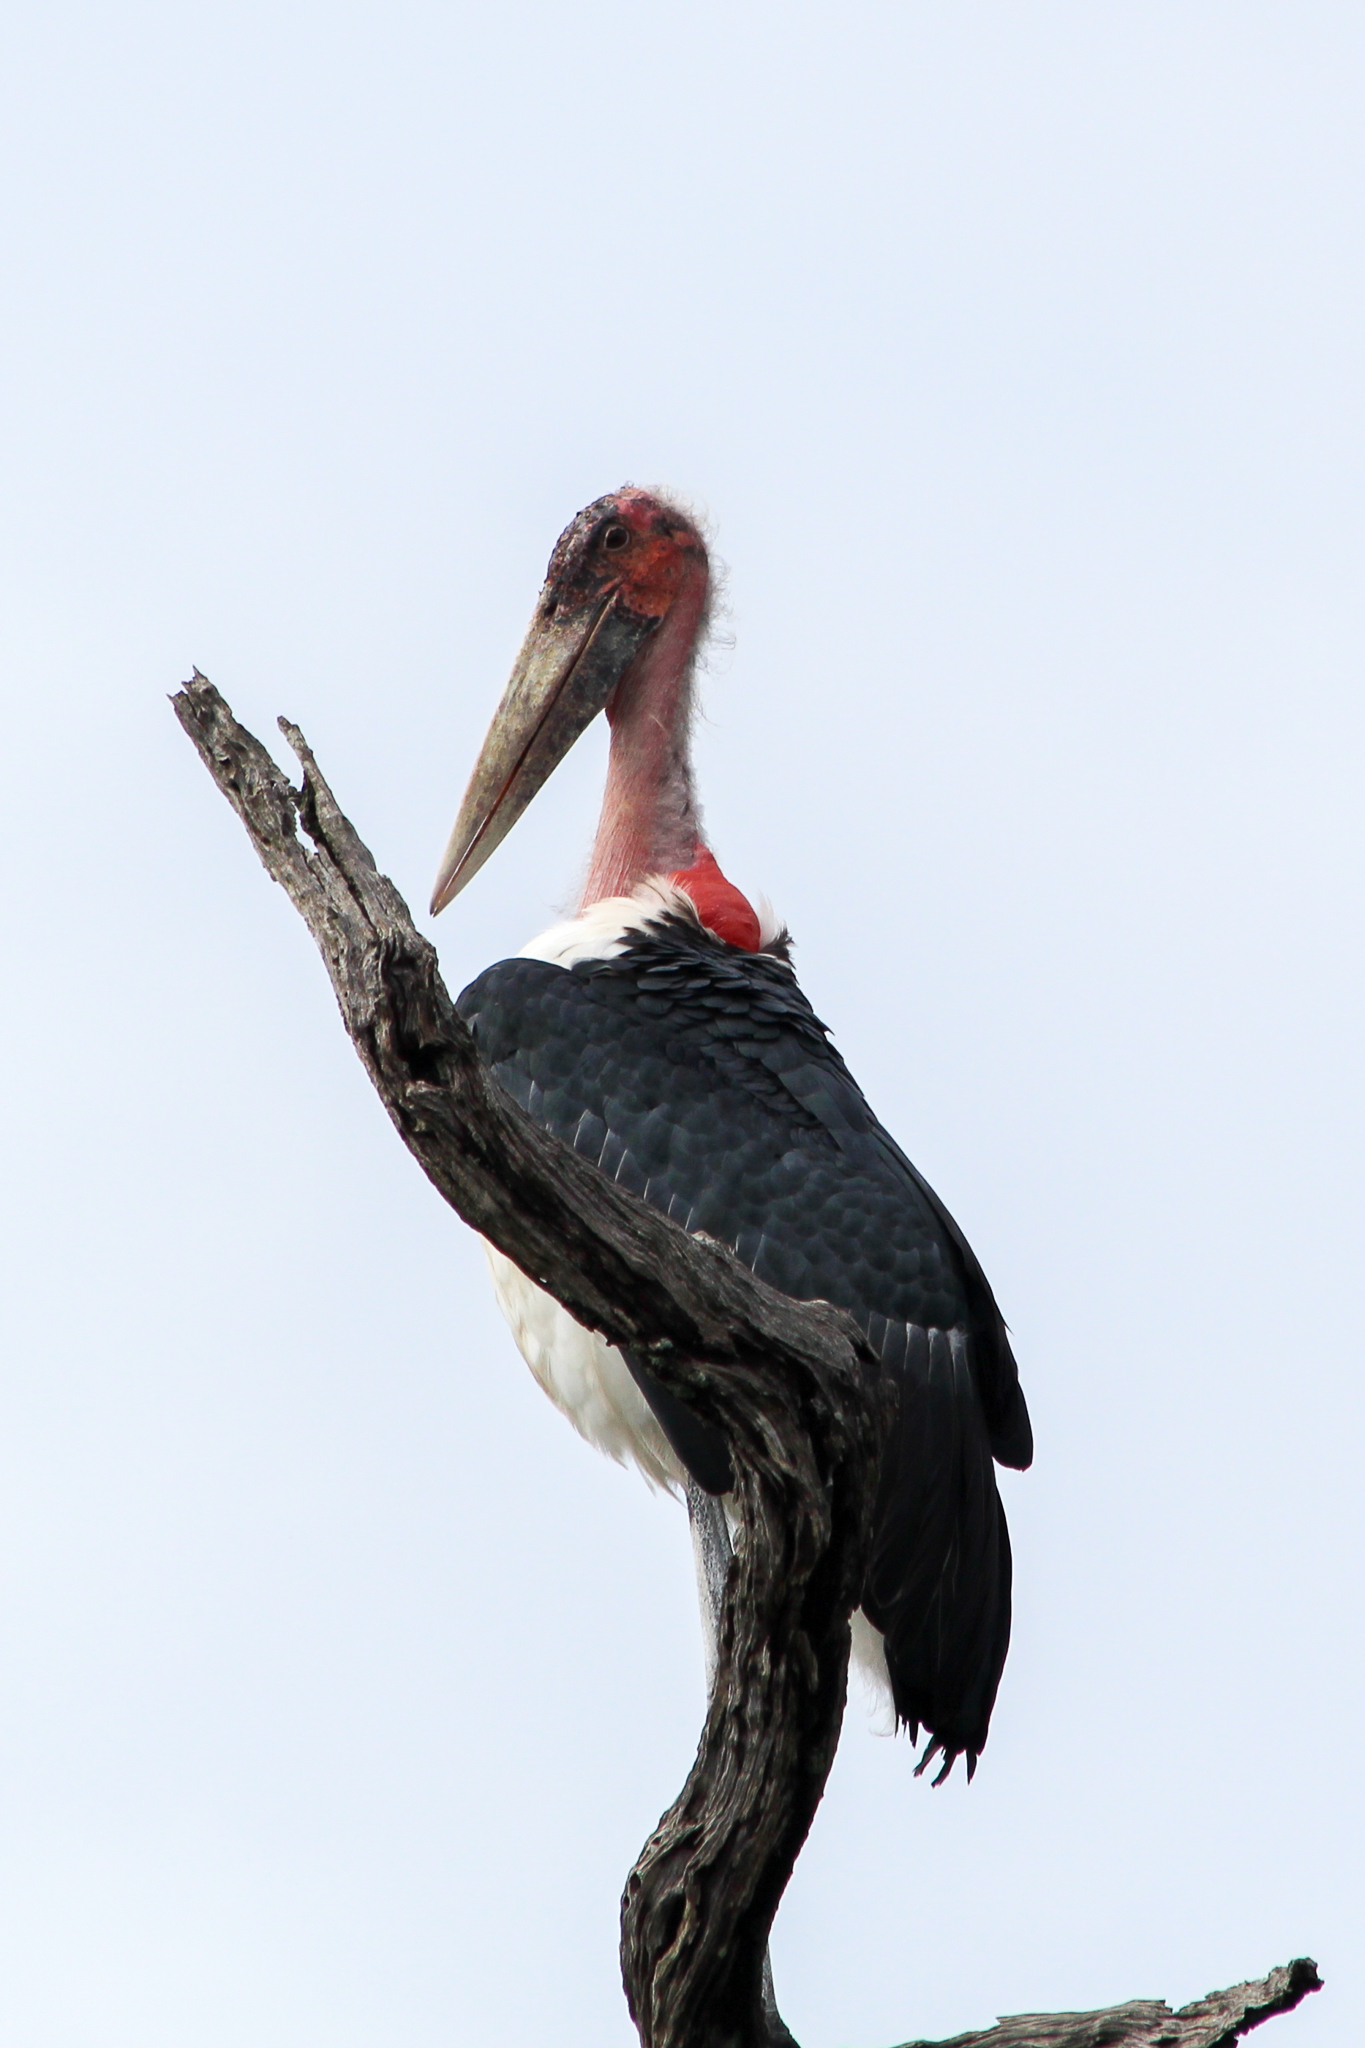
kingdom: Animalia
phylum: Chordata
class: Aves
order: Ciconiiformes
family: Ciconiidae
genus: Leptoptilos
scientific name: Leptoptilos crumenifer
